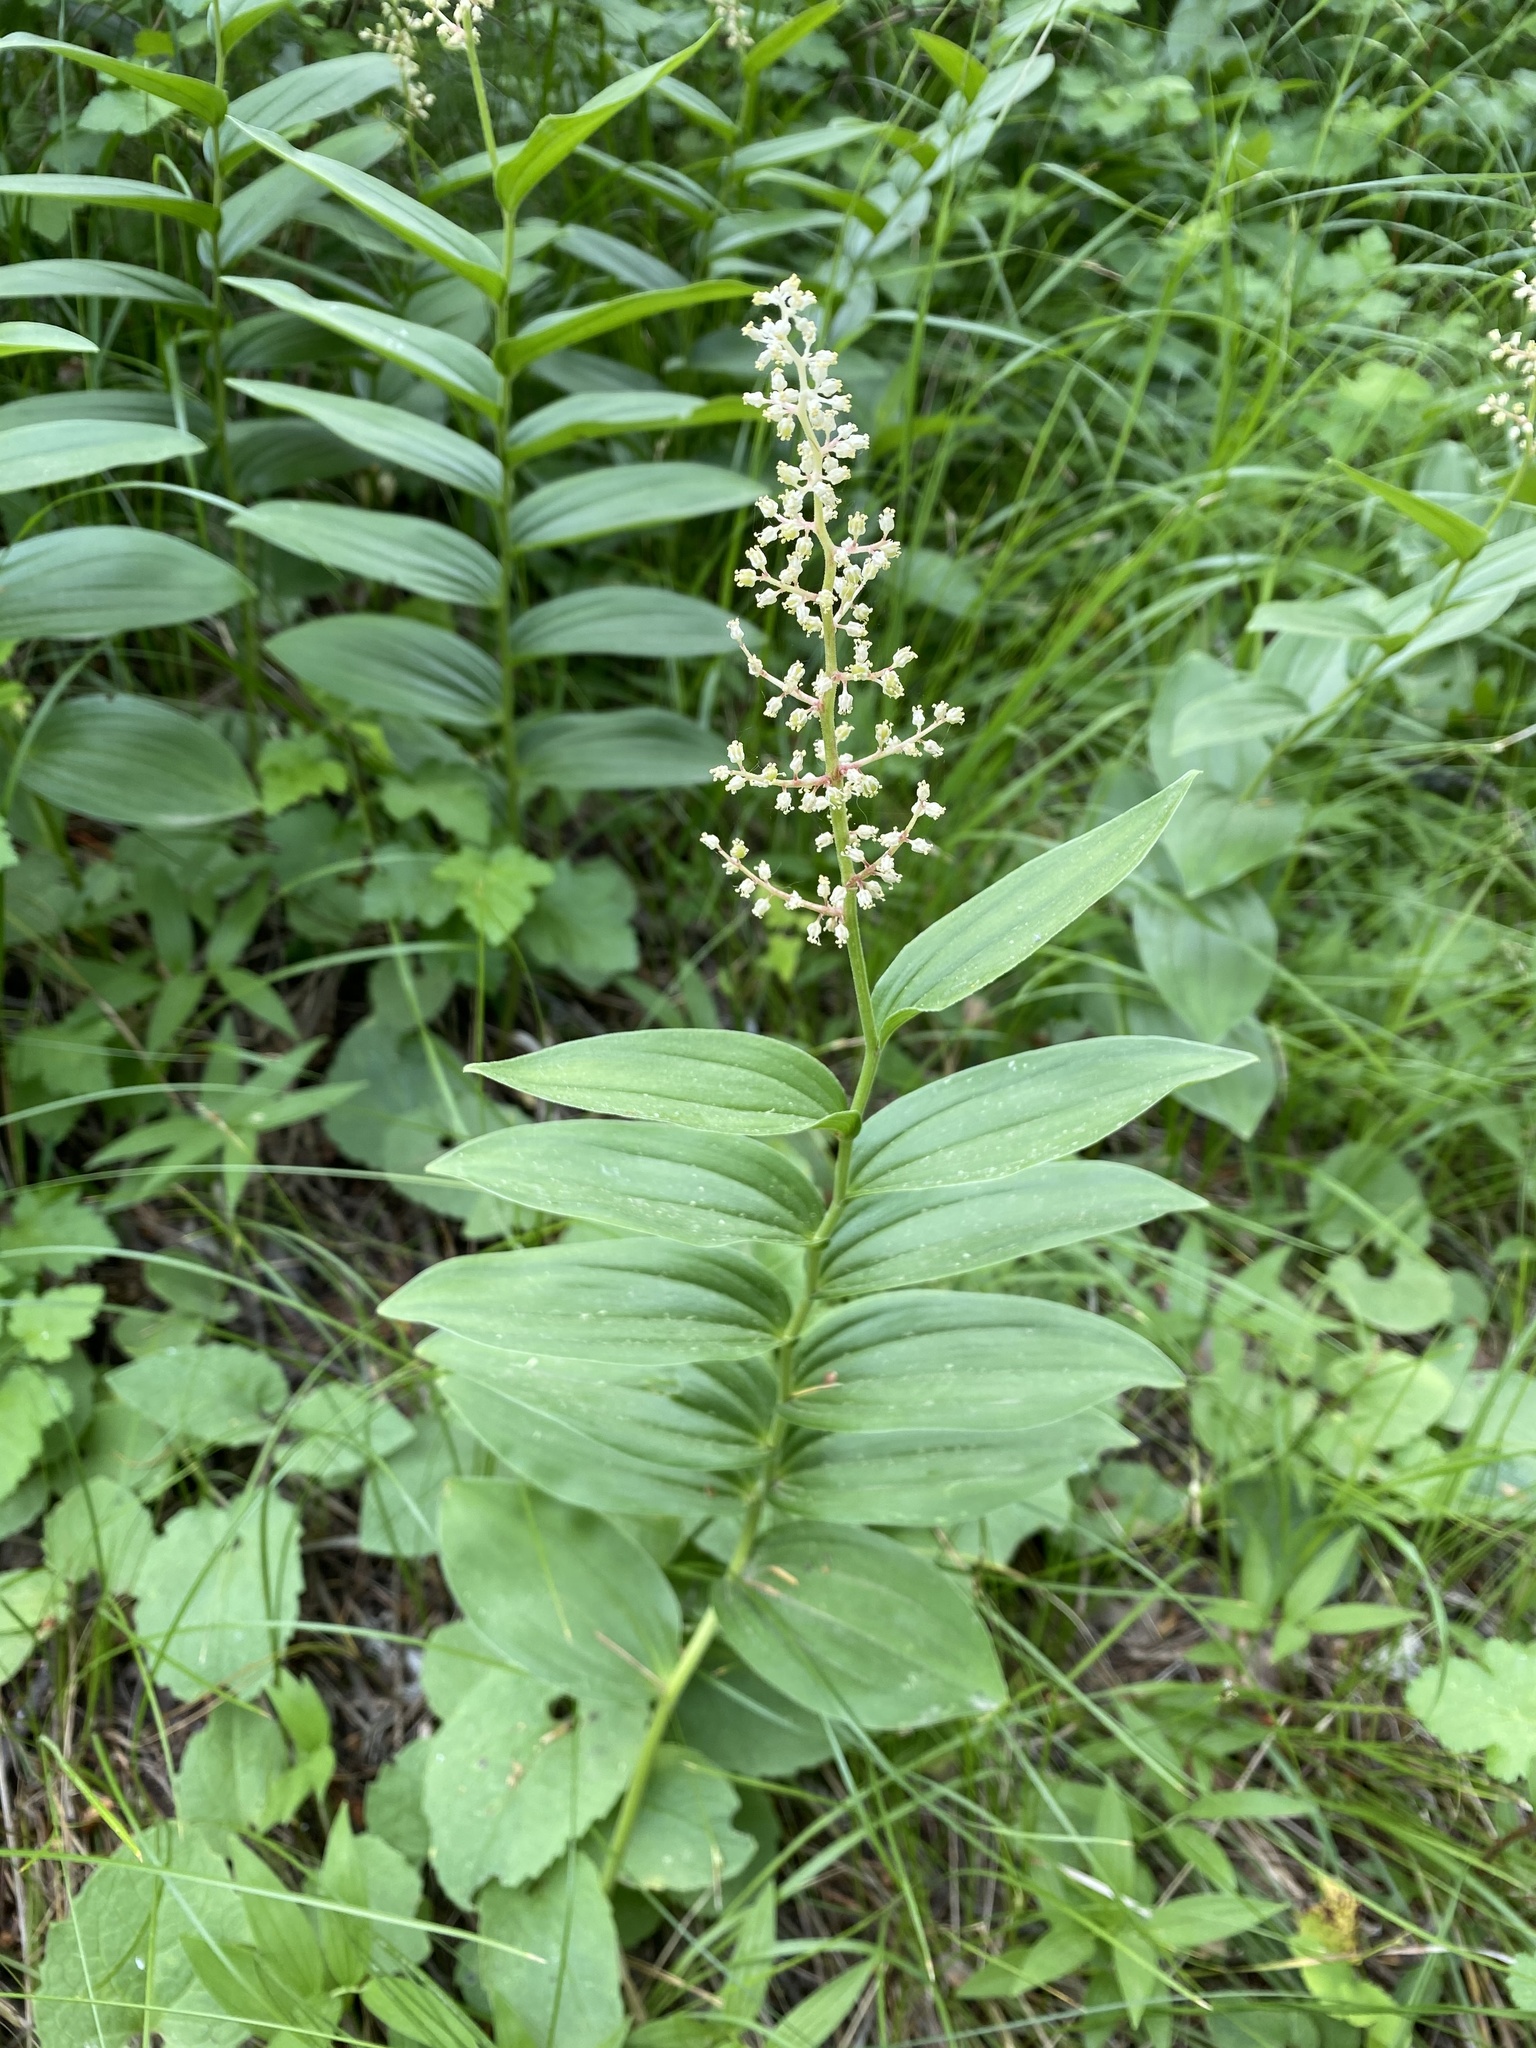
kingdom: Plantae
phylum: Tracheophyta
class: Liliopsida
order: Asparagales
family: Asparagaceae
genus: Maianthemum
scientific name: Maianthemum racemosum
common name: False spikenard
